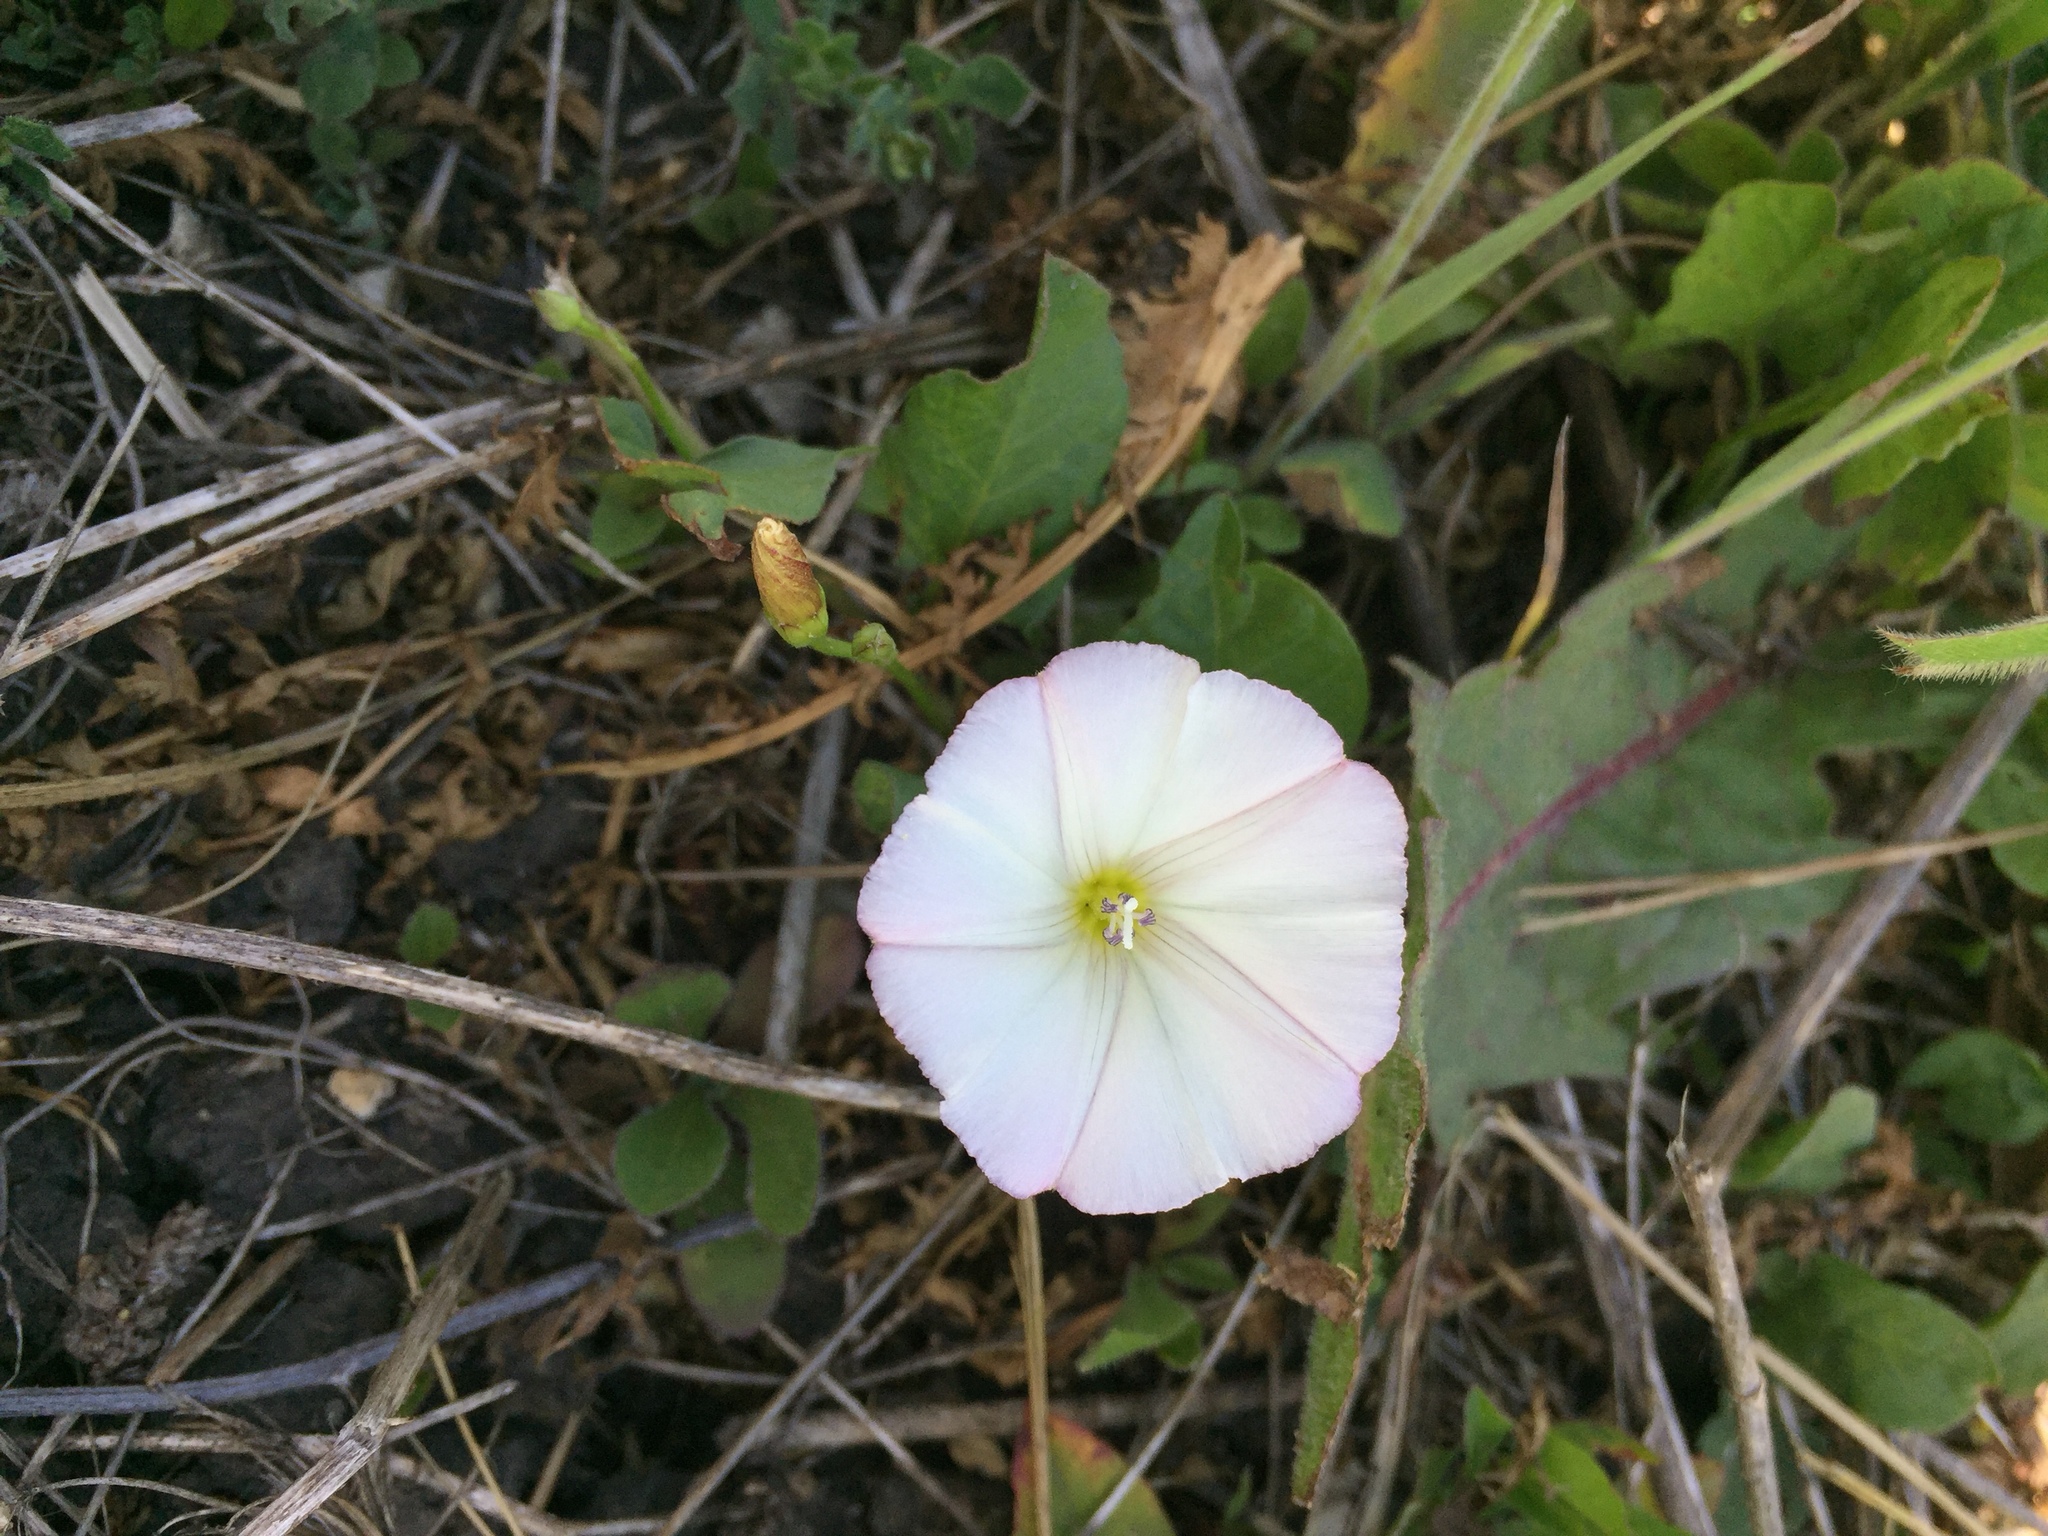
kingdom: Plantae
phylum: Tracheophyta
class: Magnoliopsida
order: Solanales
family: Convolvulaceae
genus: Convolvulus
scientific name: Convolvulus arvensis
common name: Field bindweed
